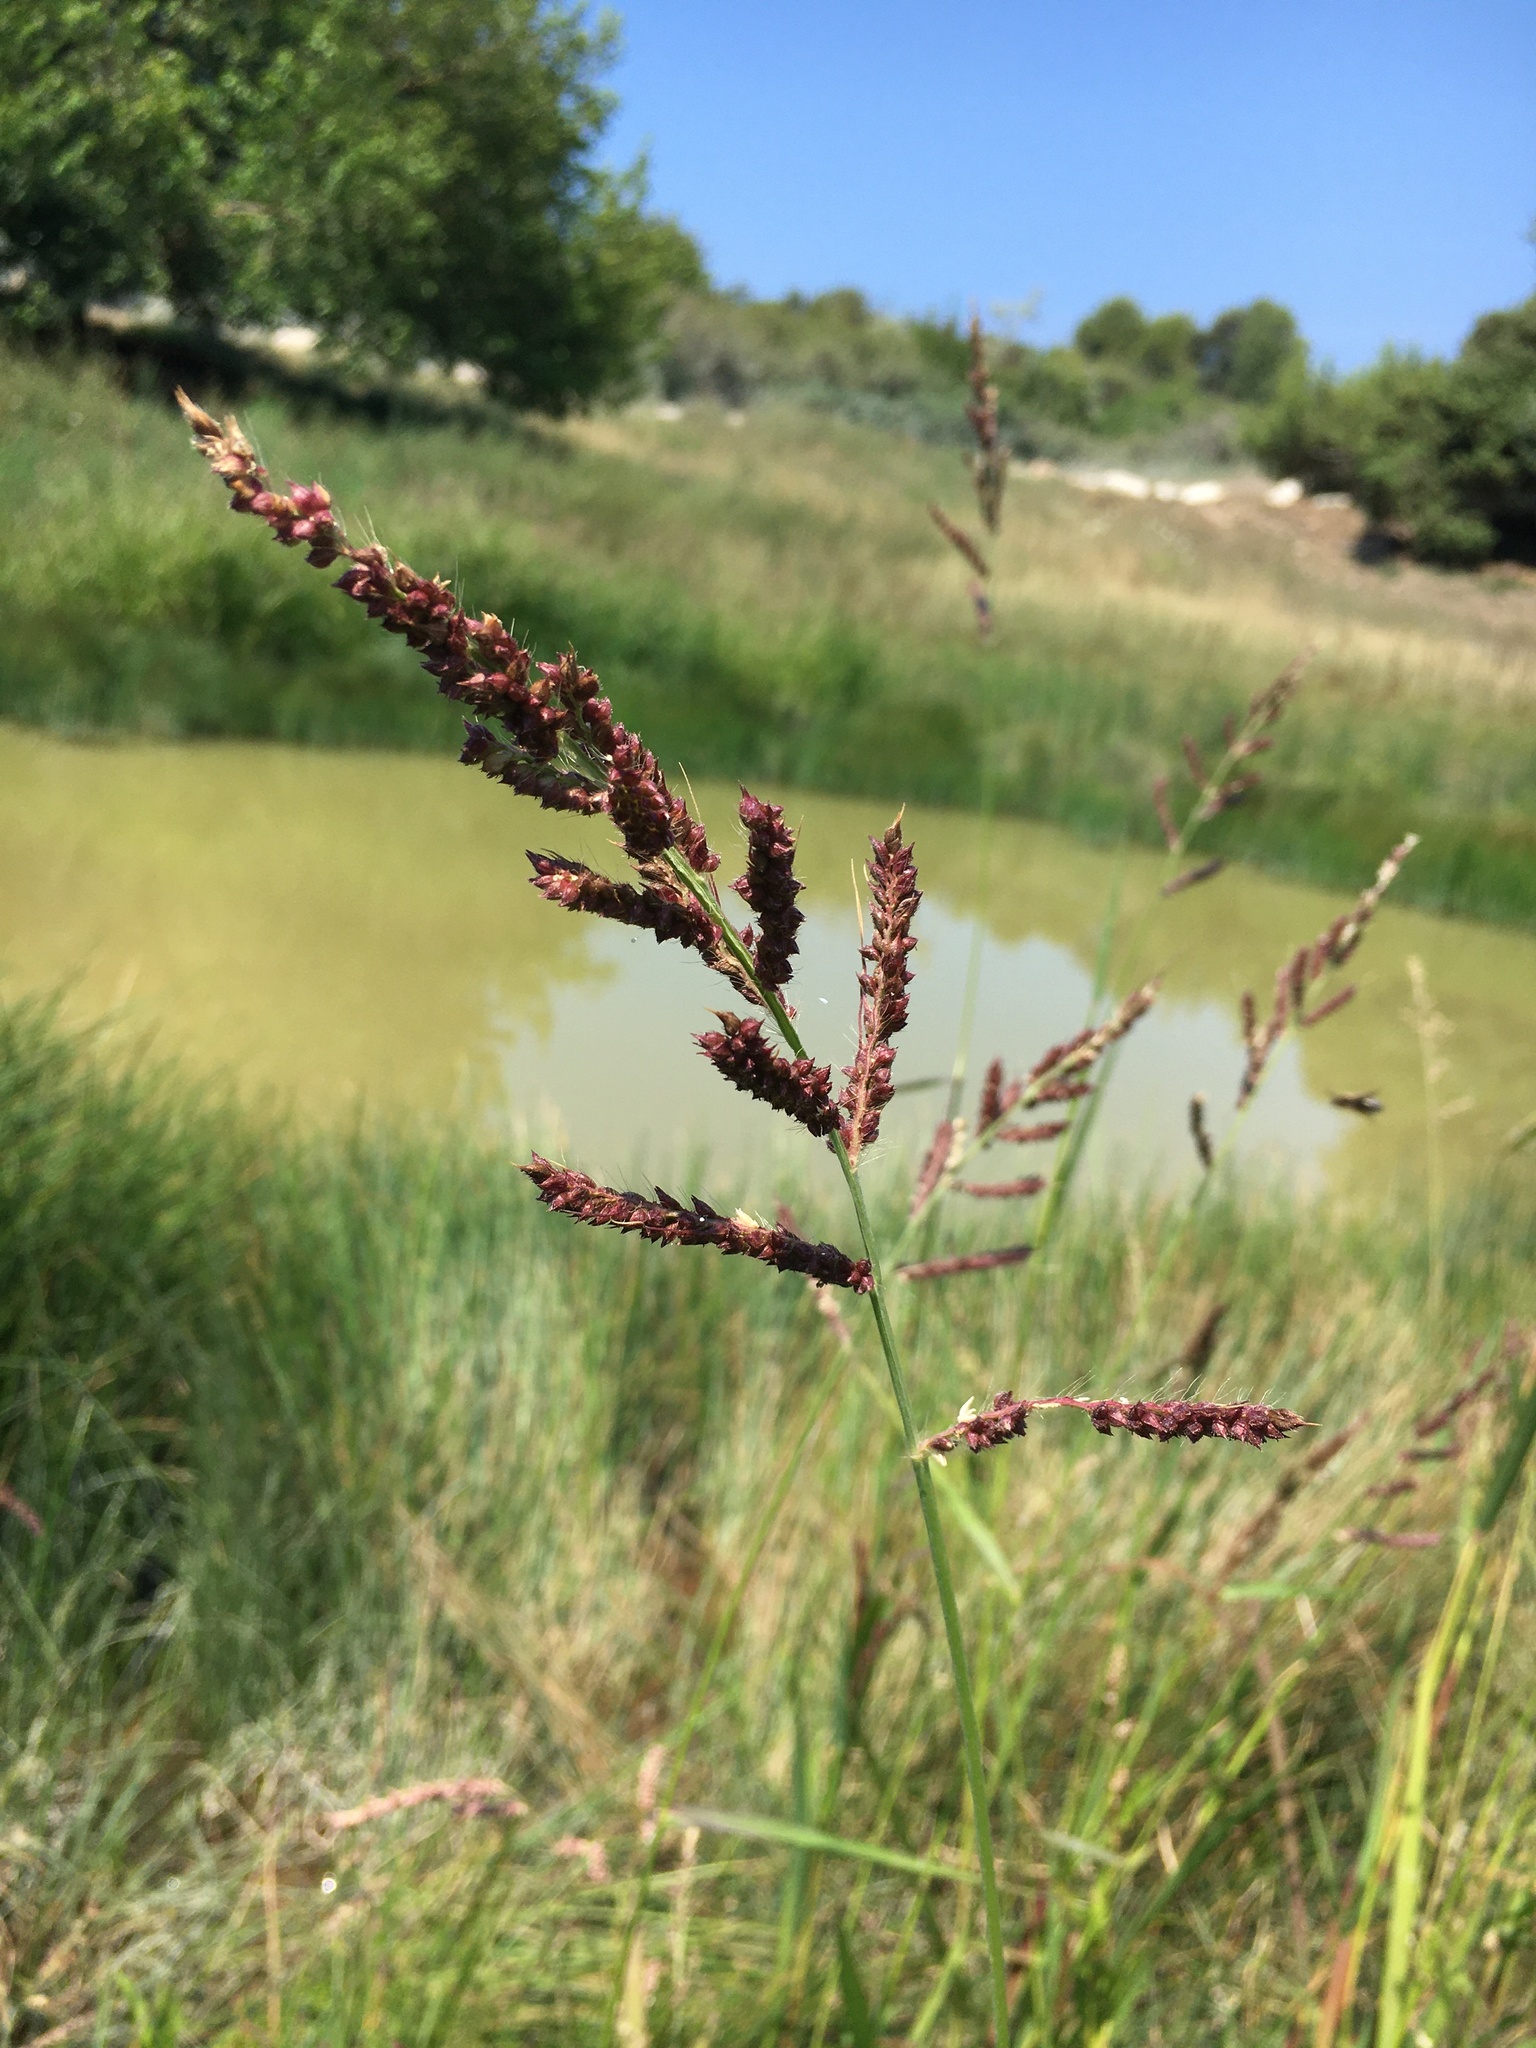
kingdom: Plantae
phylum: Tracheophyta
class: Liliopsida
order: Poales
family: Poaceae
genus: Echinochloa
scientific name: Echinochloa crus-galli
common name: Cockspur
